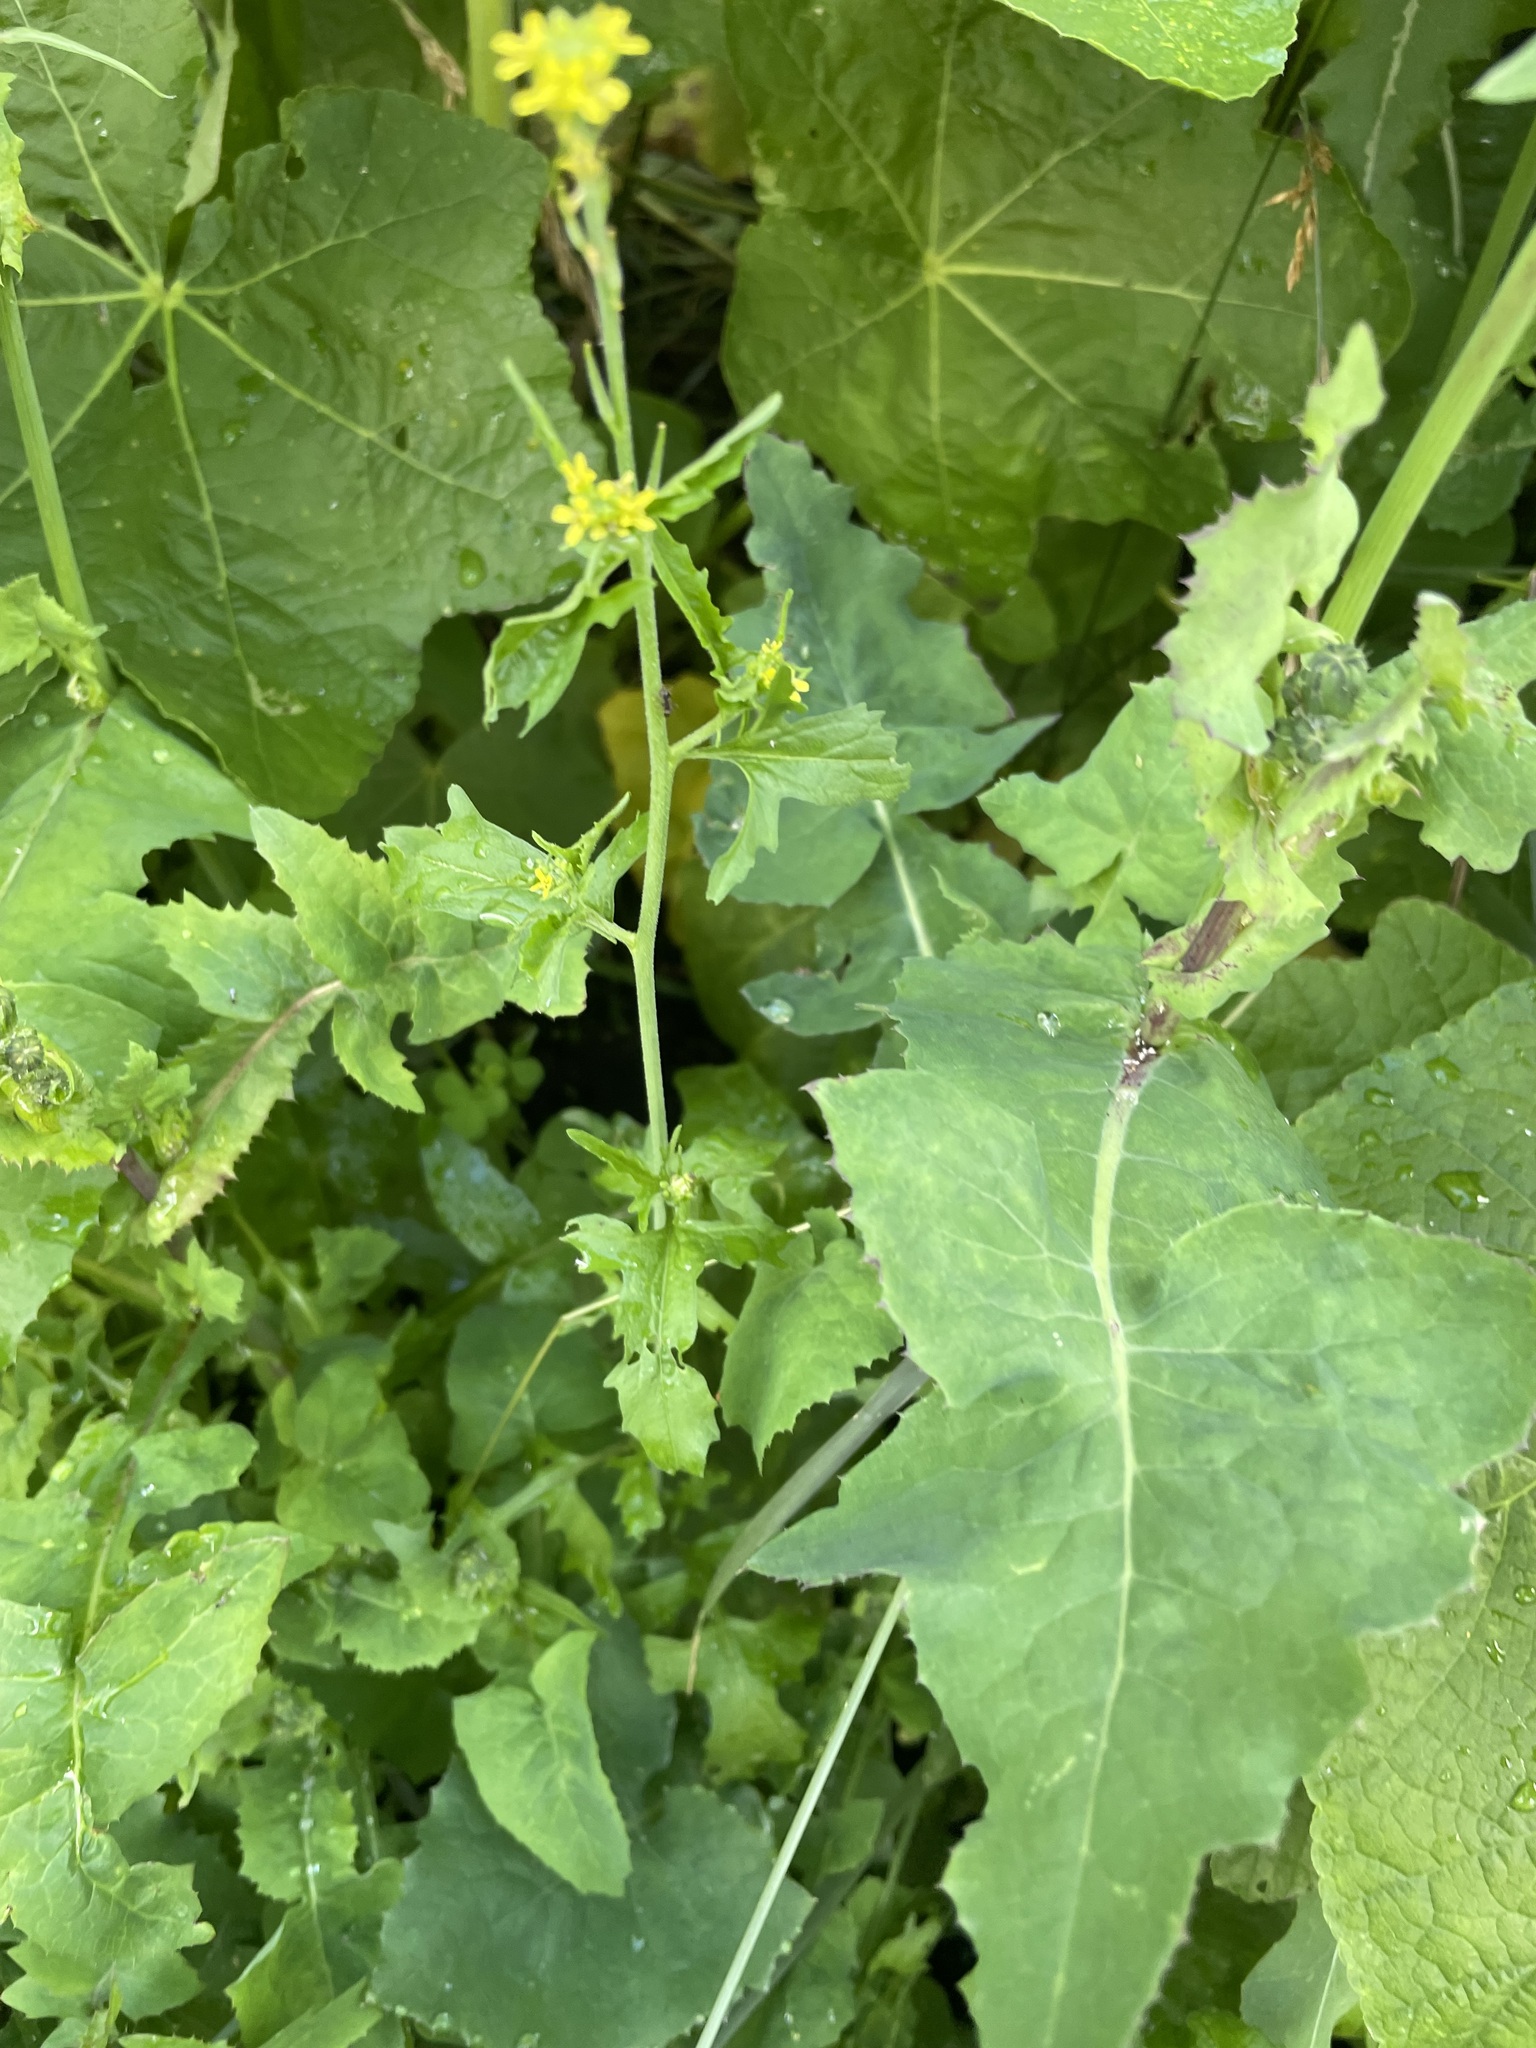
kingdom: Plantae
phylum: Tracheophyta
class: Magnoliopsida
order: Brassicales
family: Brassicaceae
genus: Sisymbrium
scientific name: Sisymbrium officinale
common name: Hedge mustard
